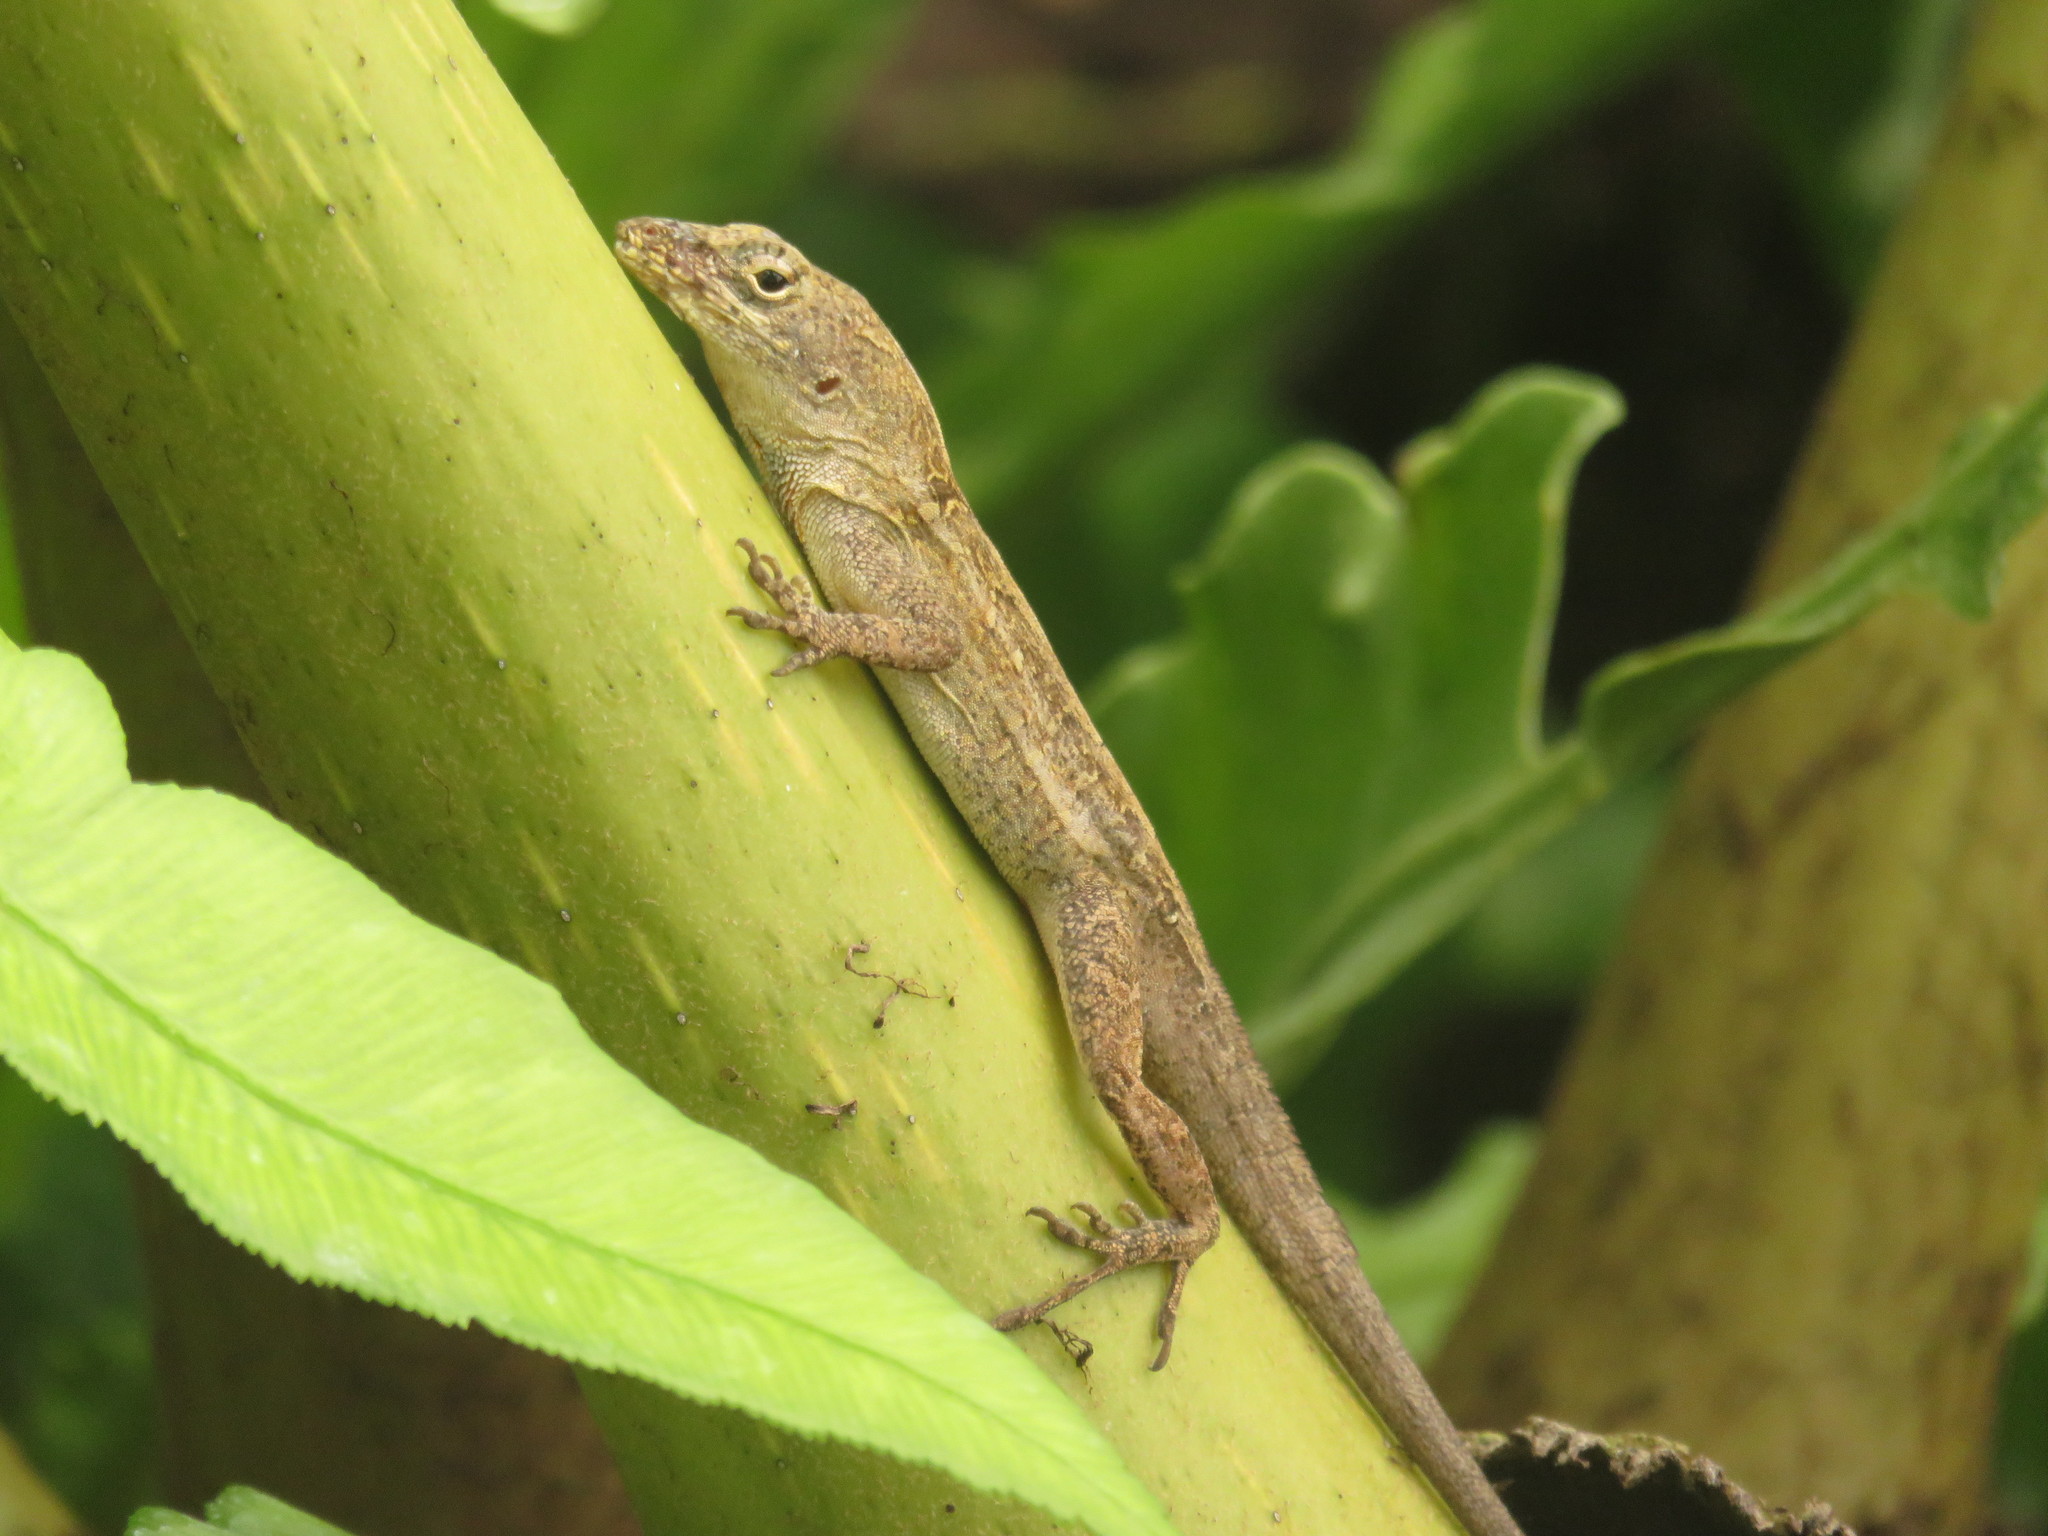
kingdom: Animalia
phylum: Chordata
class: Squamata
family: Dactyloidae
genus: Anolis
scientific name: Anolis sagrei
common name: Brown anole
